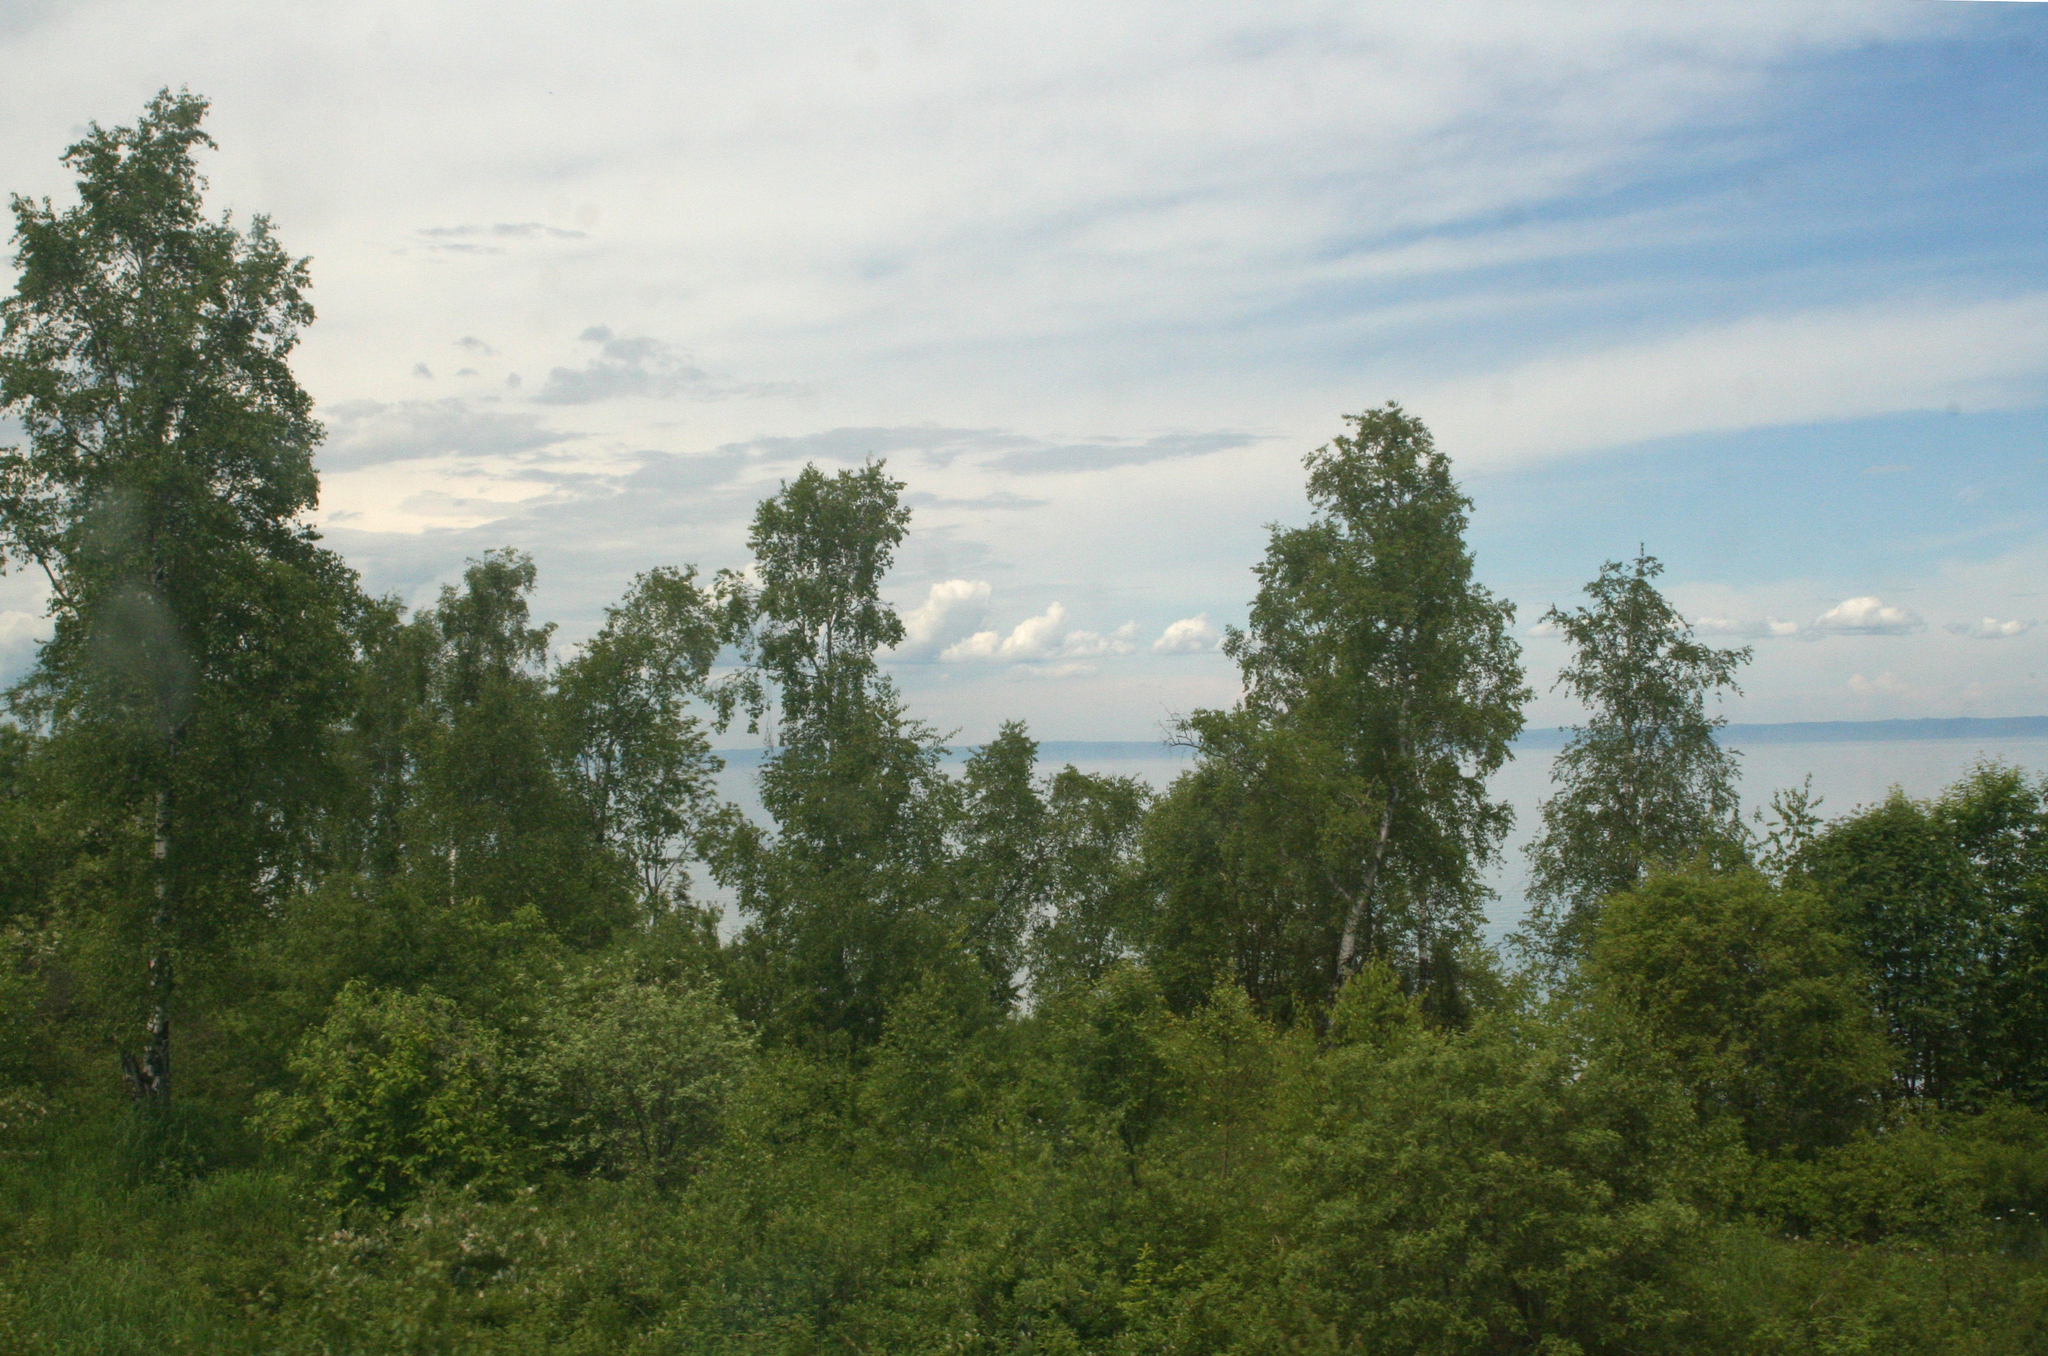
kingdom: Plantae
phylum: Tracheophyta
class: Magnoliopsida
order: Fagales
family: Betulaceae
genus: Betula
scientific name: Betula pendula
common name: Silver birch
